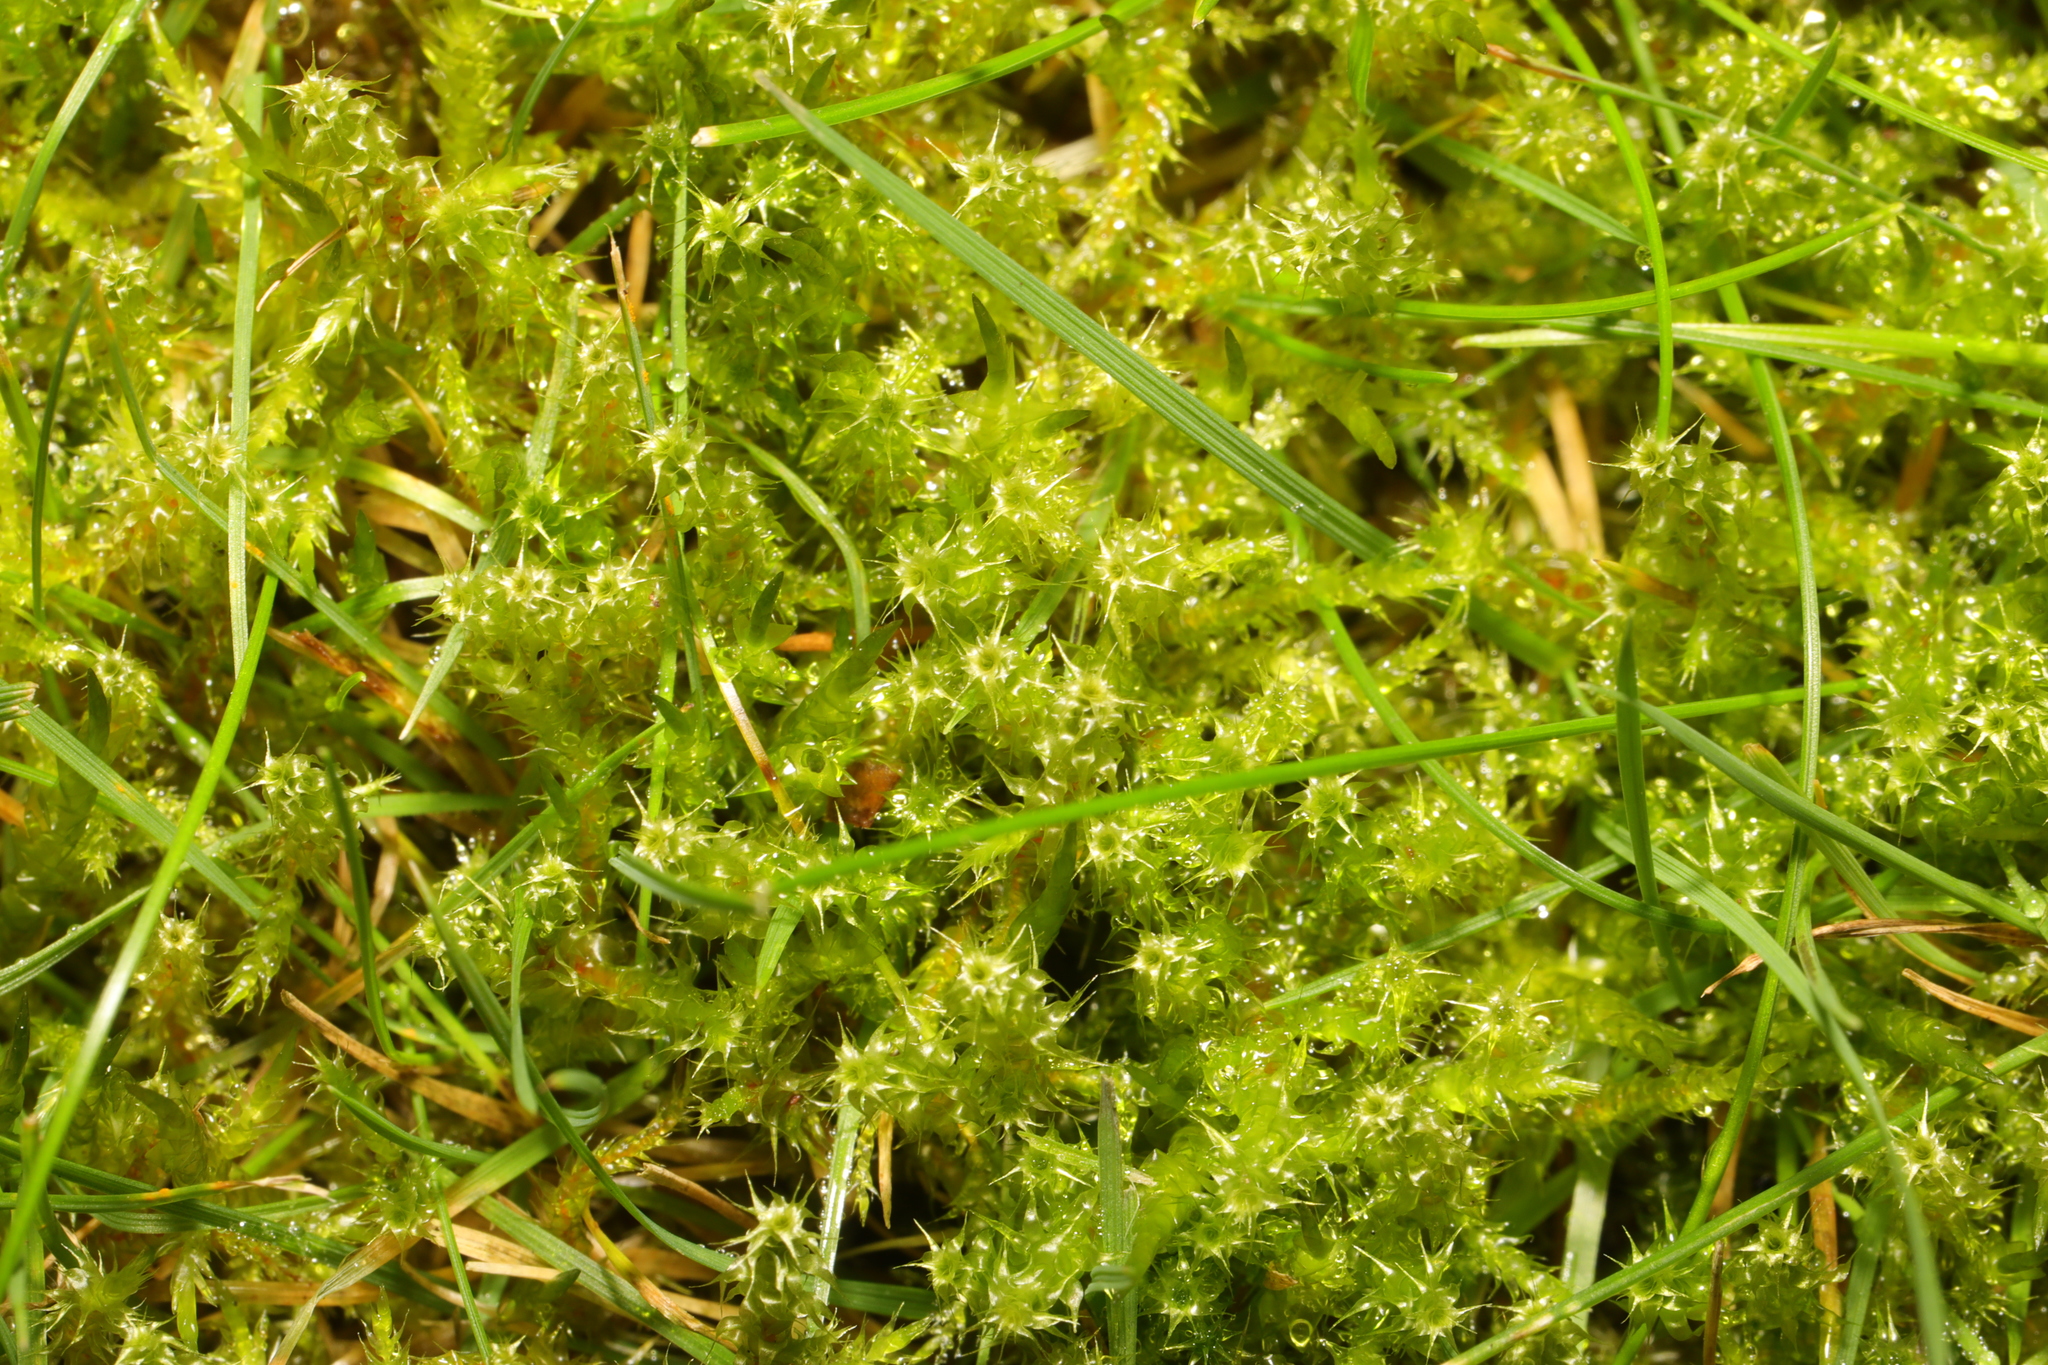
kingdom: Plantae
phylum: Bryophyta
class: Bryopsida
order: Hypnales
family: Hylocomiaceae
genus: Rhytidiadelphus
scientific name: Rhytidiadelphus squarrosus
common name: Springy turf-moss
